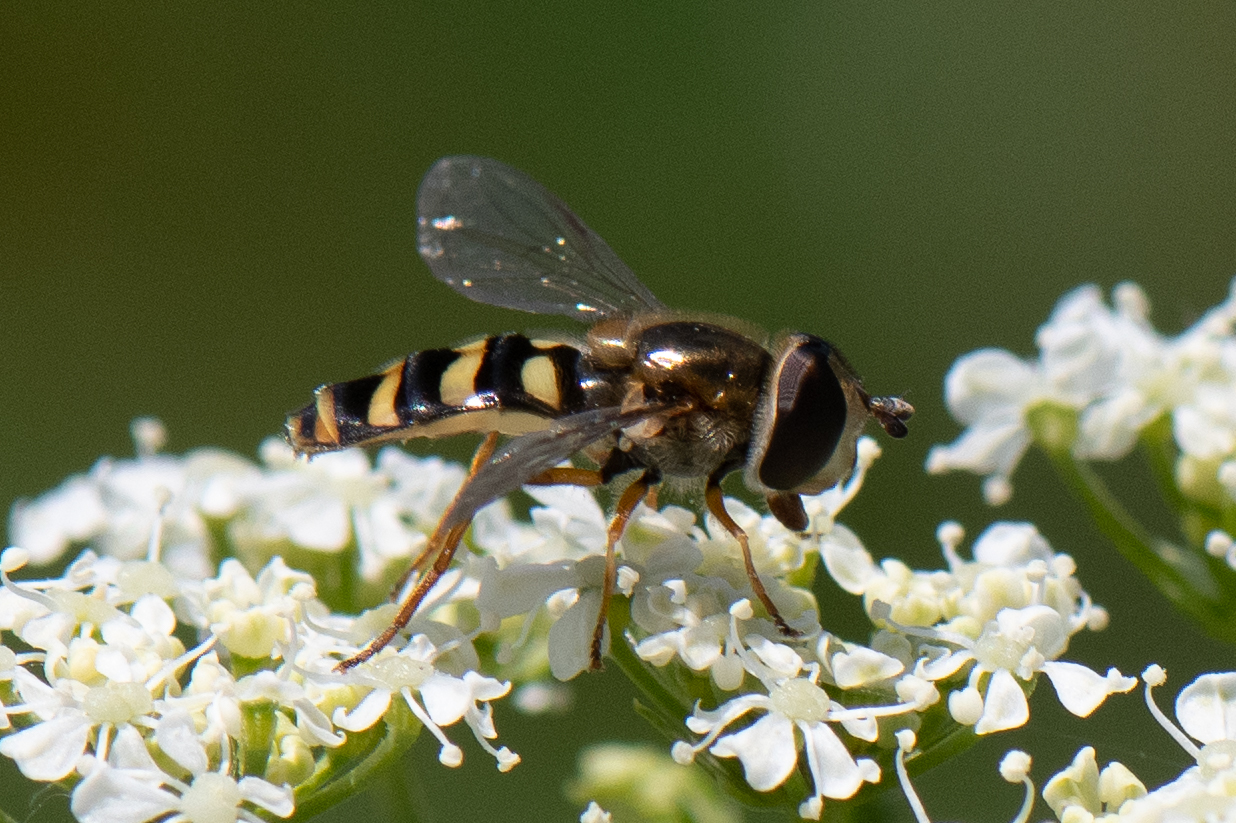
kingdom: Animalia
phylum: Arthropoda
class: Insecta
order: Diptera
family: Syrphidae
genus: Eupeodes
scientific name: Eupeodes fumipennis
